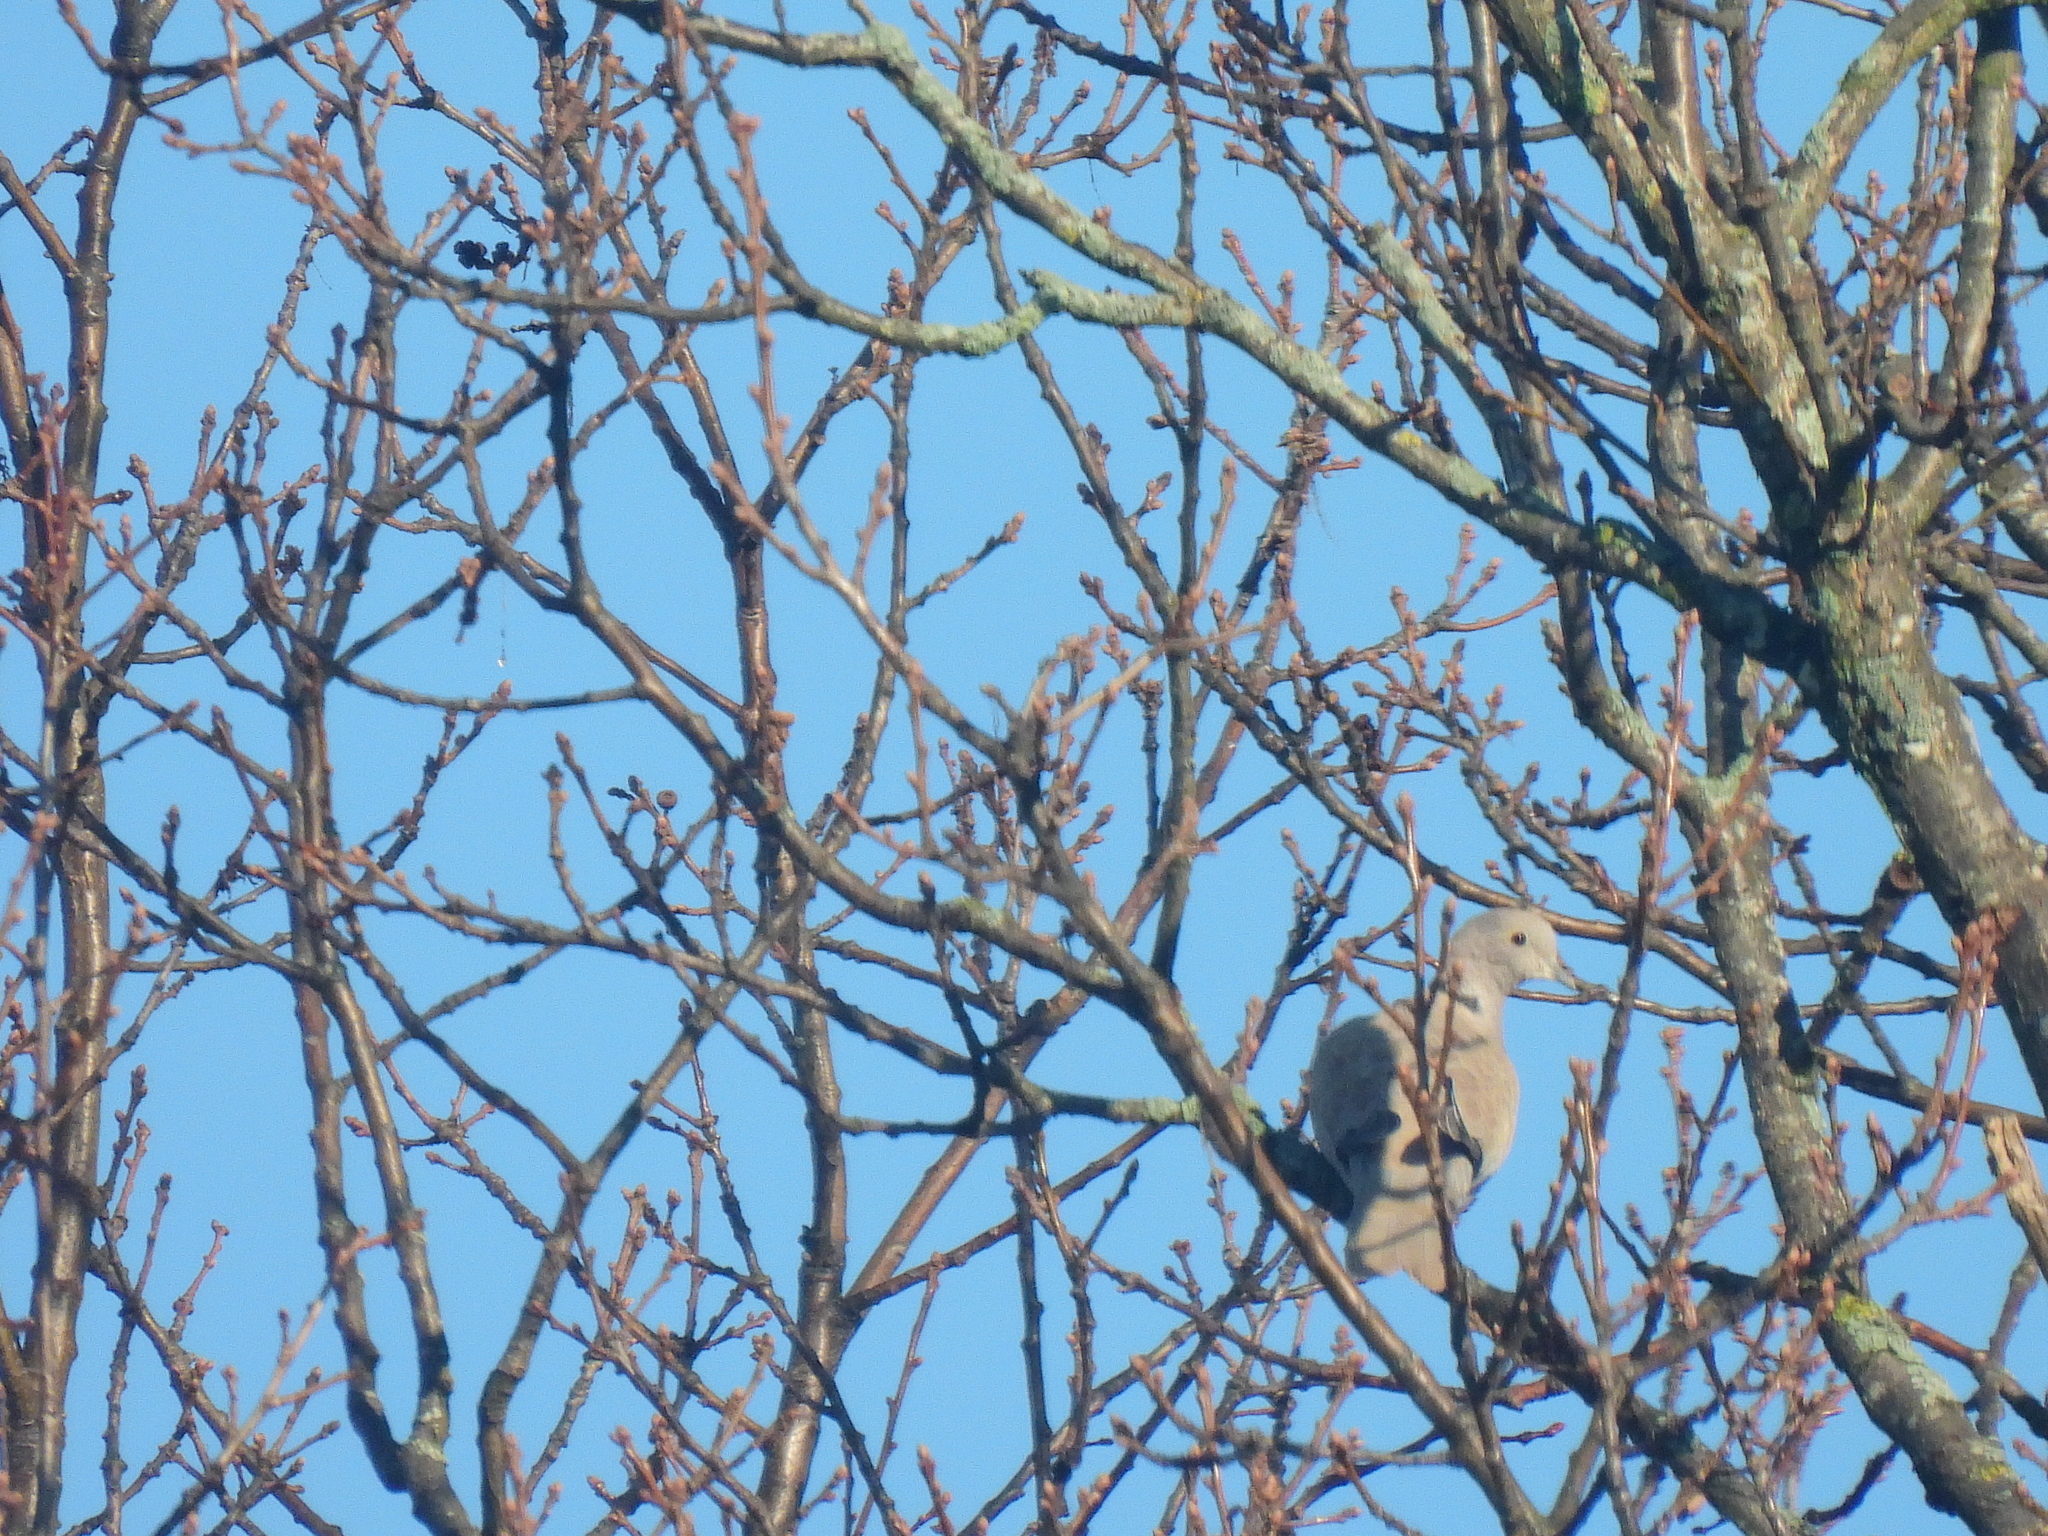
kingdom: Animalia
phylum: Chordata
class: Aves
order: Columbiformes
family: Columbidae
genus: Streptopelia
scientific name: Streptopelia decaocto
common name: Eurasian collared dove
